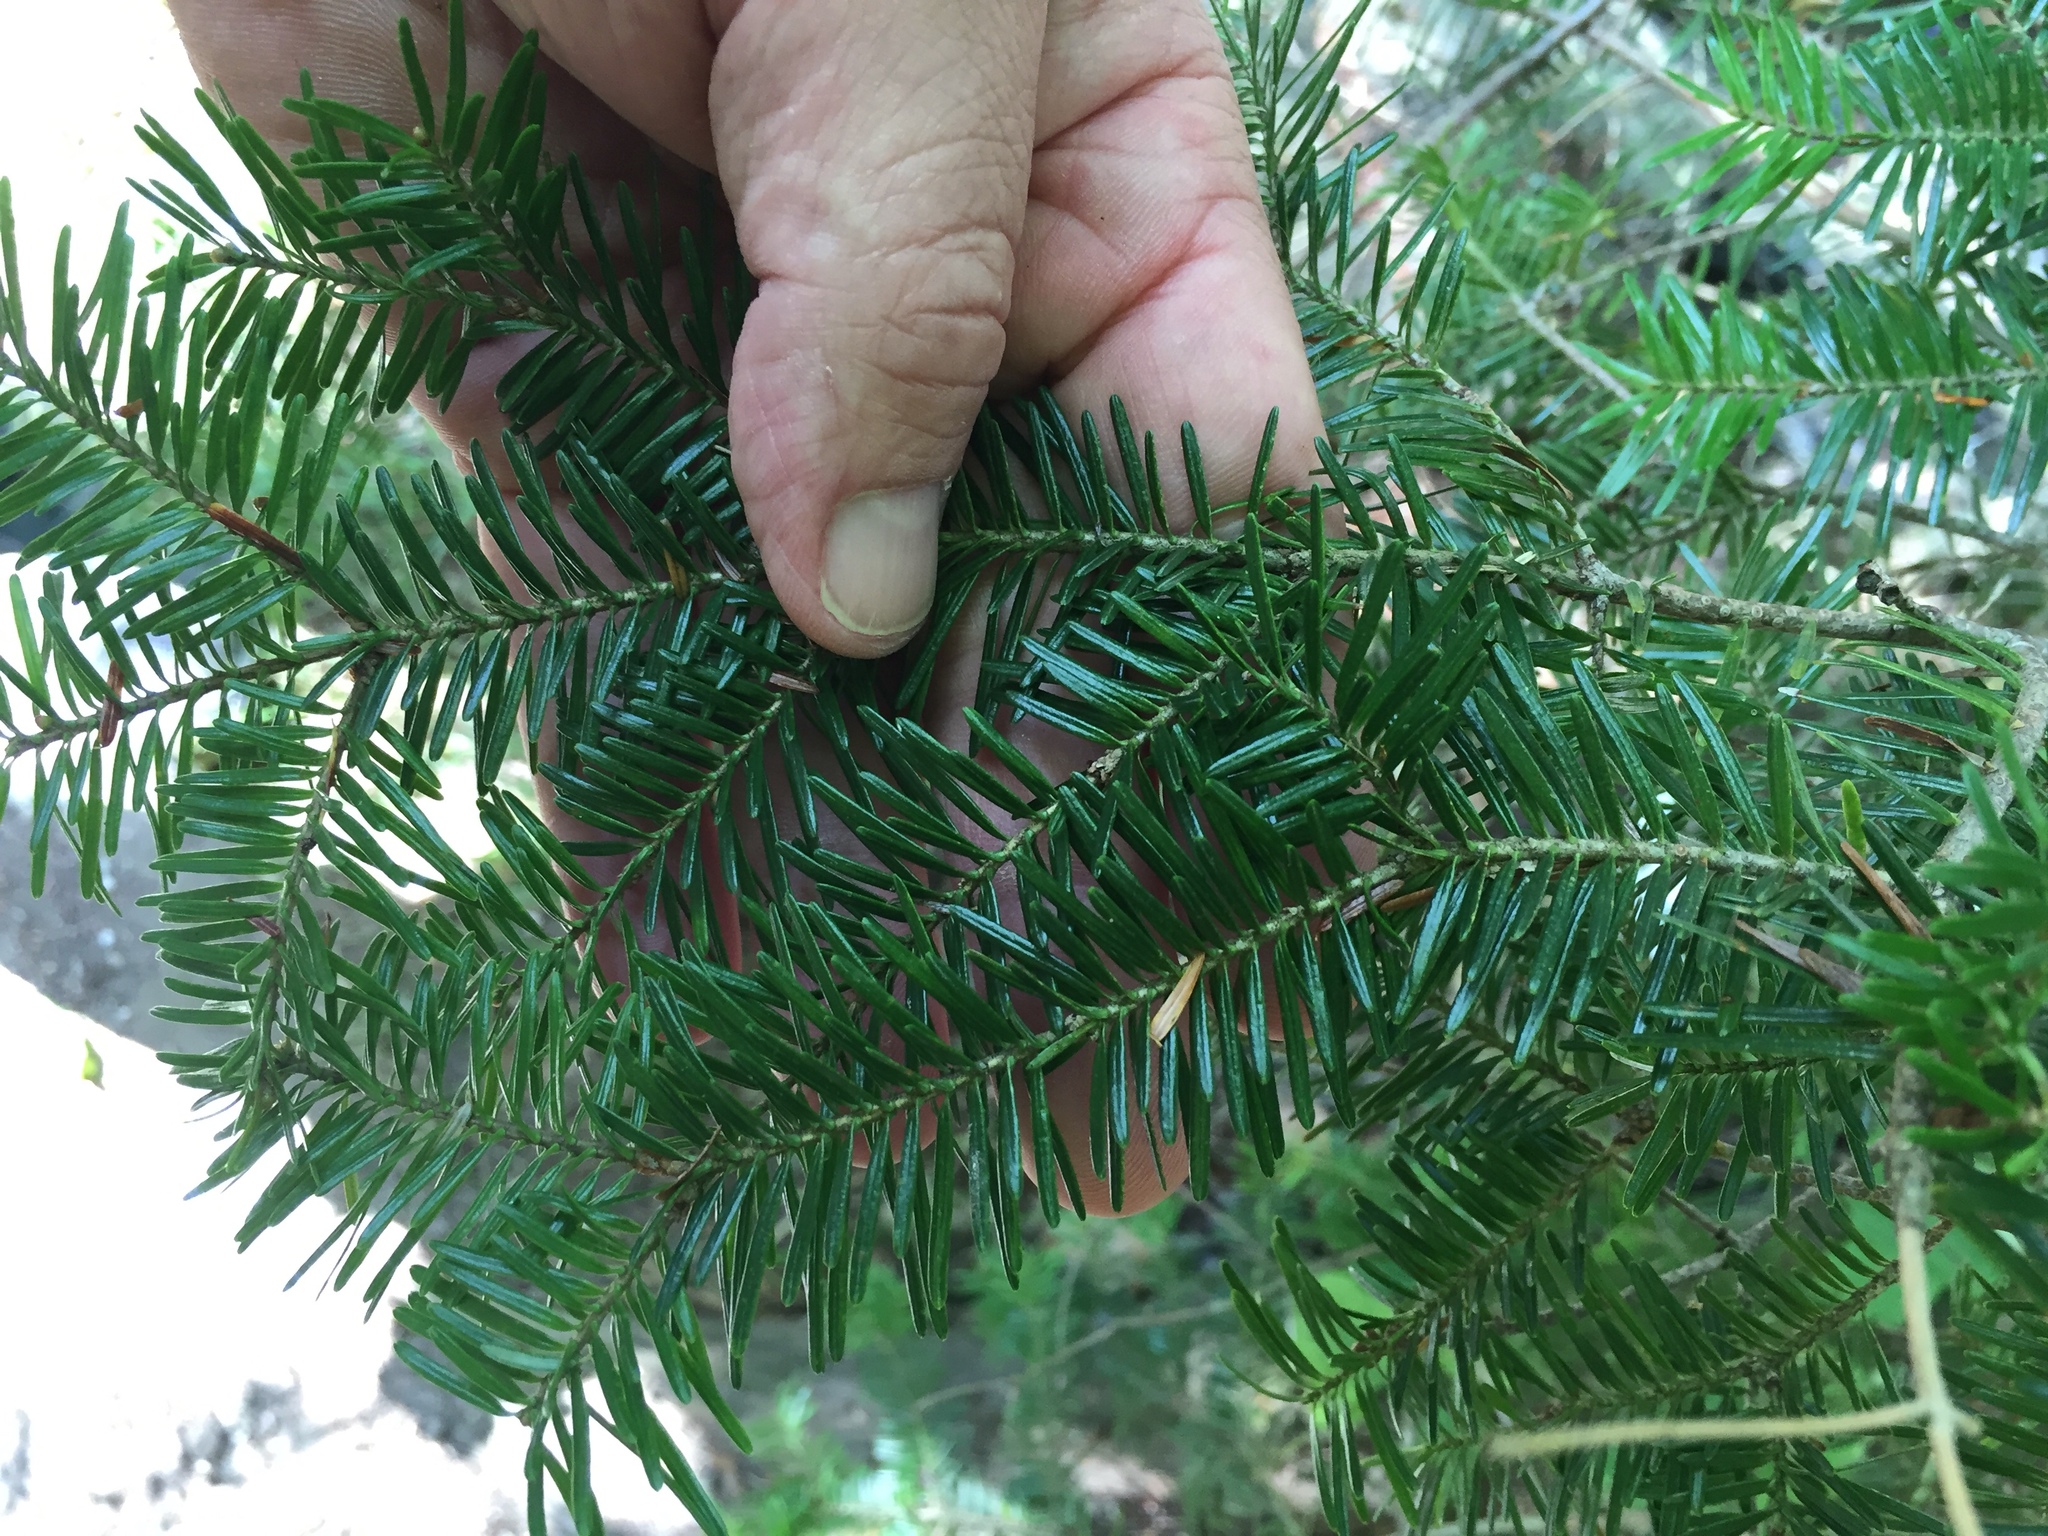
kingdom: Plantae
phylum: Tracheophyta
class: Pinopsida
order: Pinales
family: Pinaceae
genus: Abies
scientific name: Abies balsamea
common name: Balsam fir
